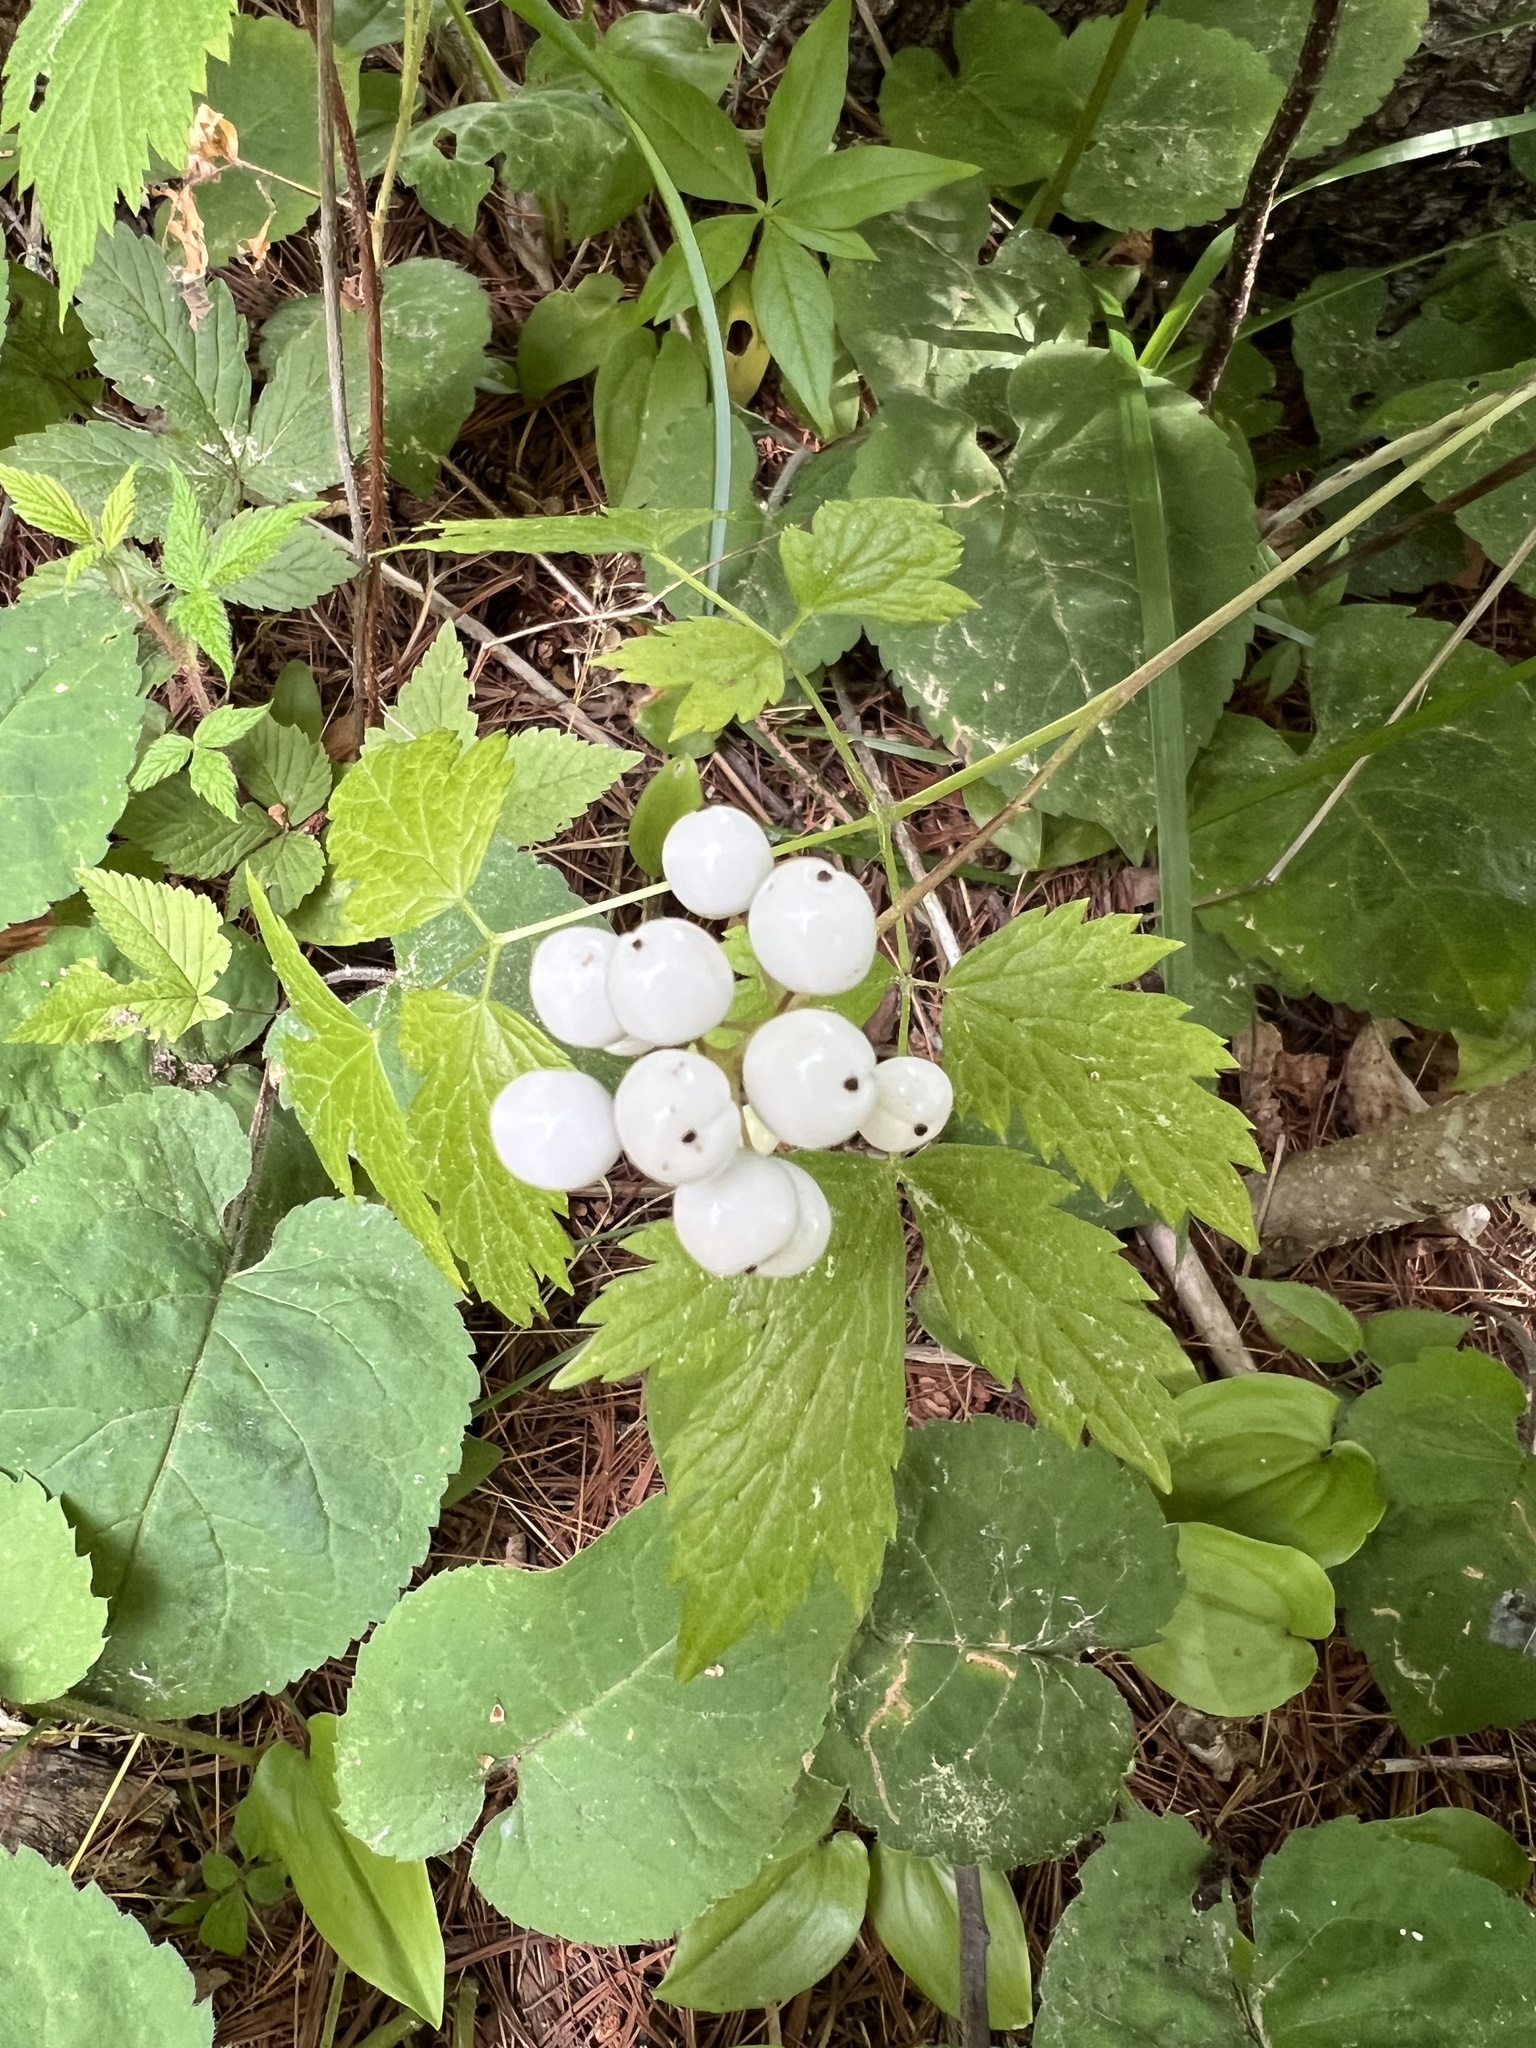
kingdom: Plantae
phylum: Tracheophyta
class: Magnoliopsida
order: Ranunculales
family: Ranunculaceae
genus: Actaea
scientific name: Actaea rubra
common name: Red baneberry
